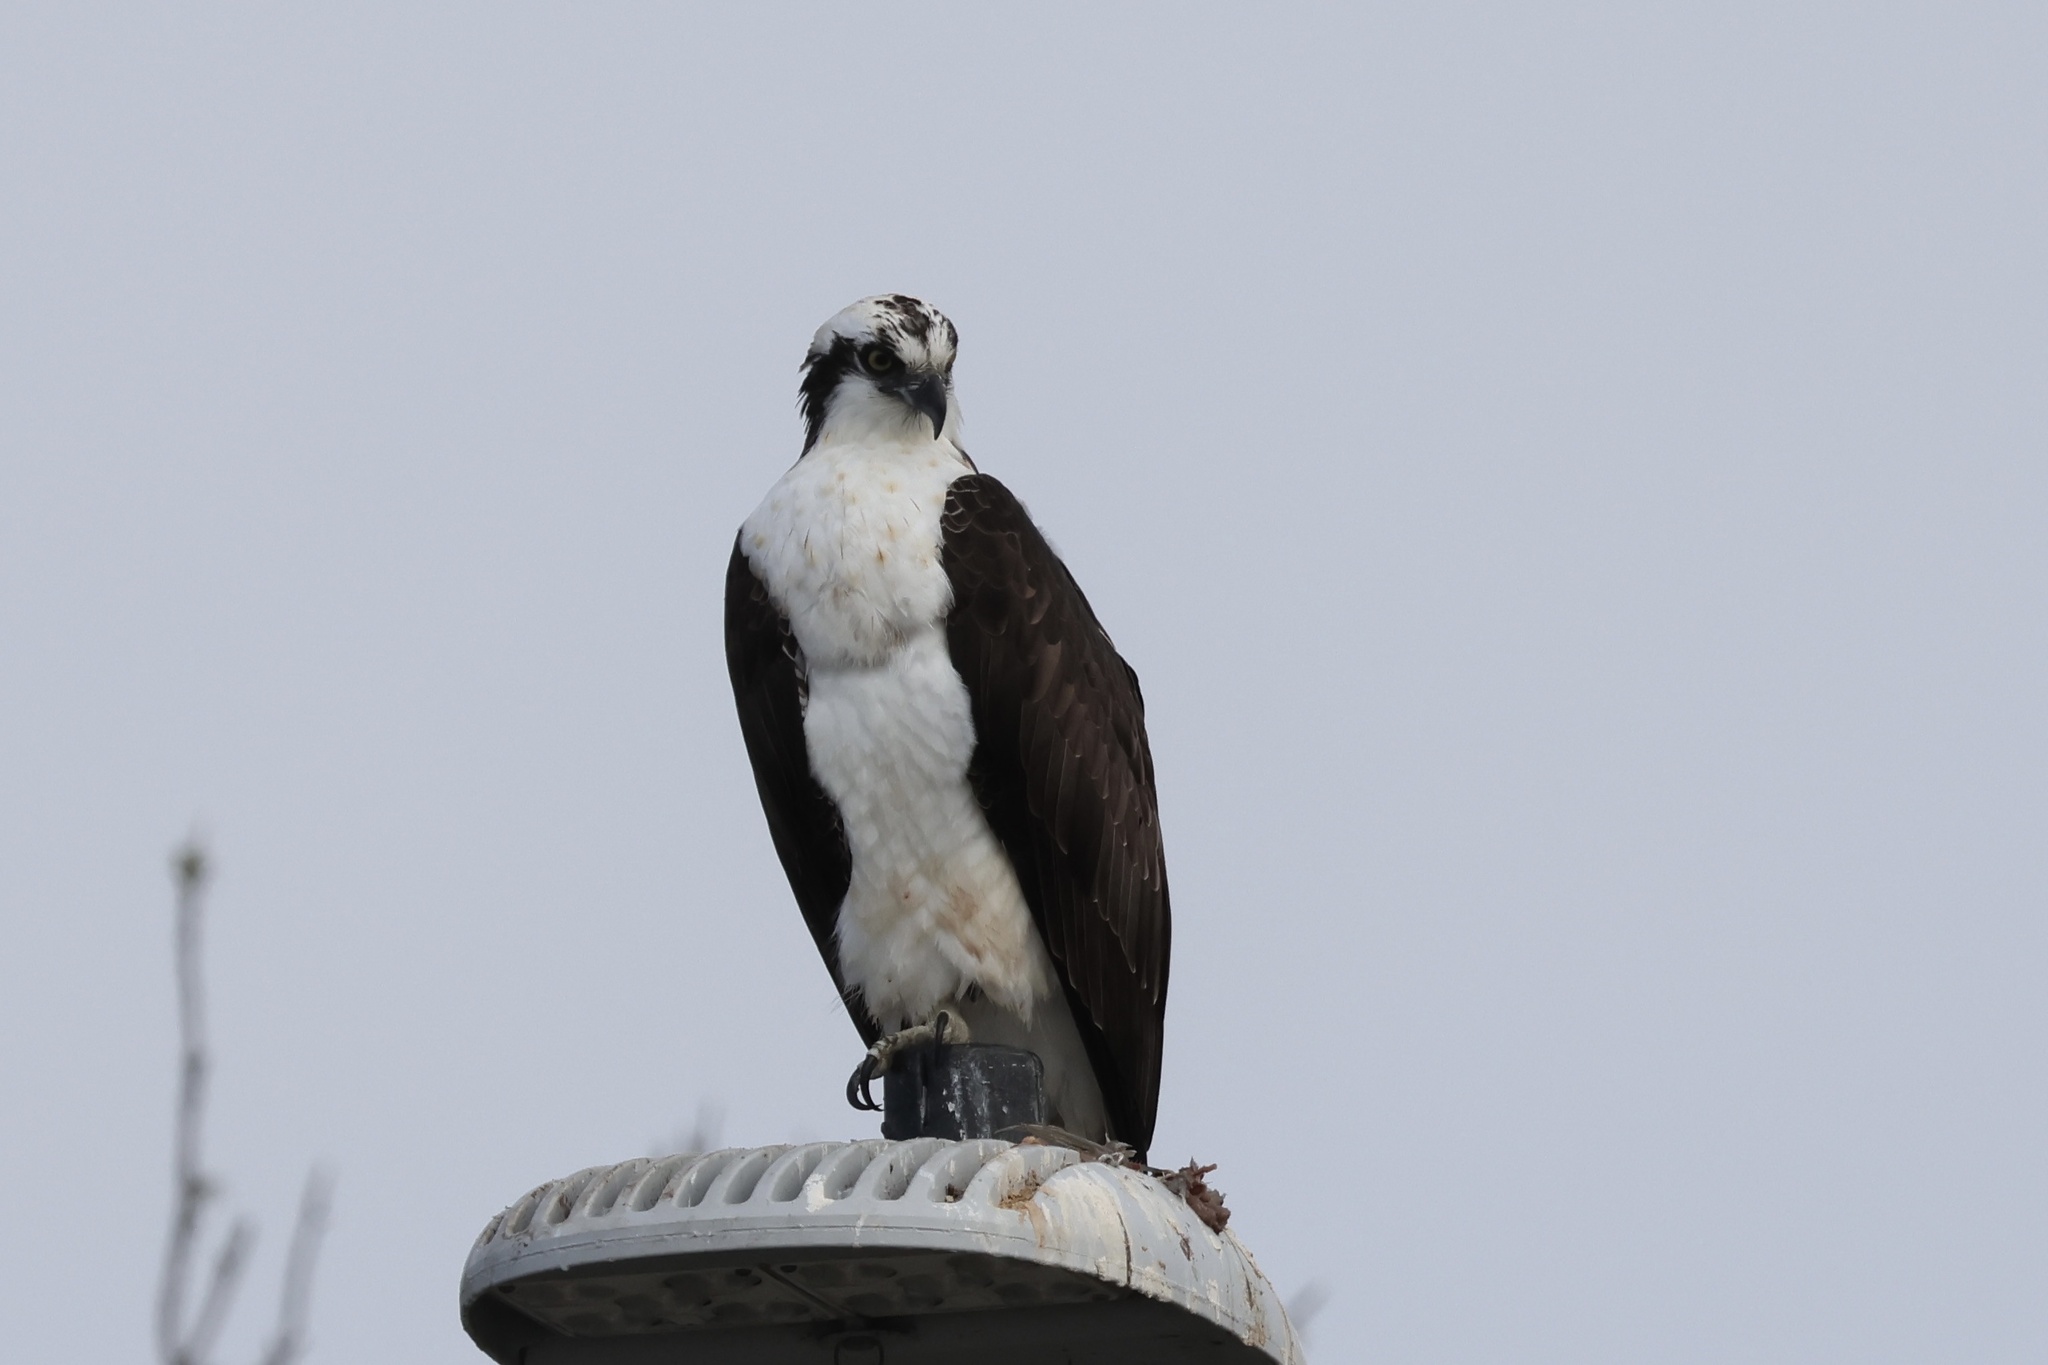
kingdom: Animalia
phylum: Chordata
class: Aves
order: Accipitriformes
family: Pandionidae
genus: Pandion
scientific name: Pandion haliaetus
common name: Osprey
